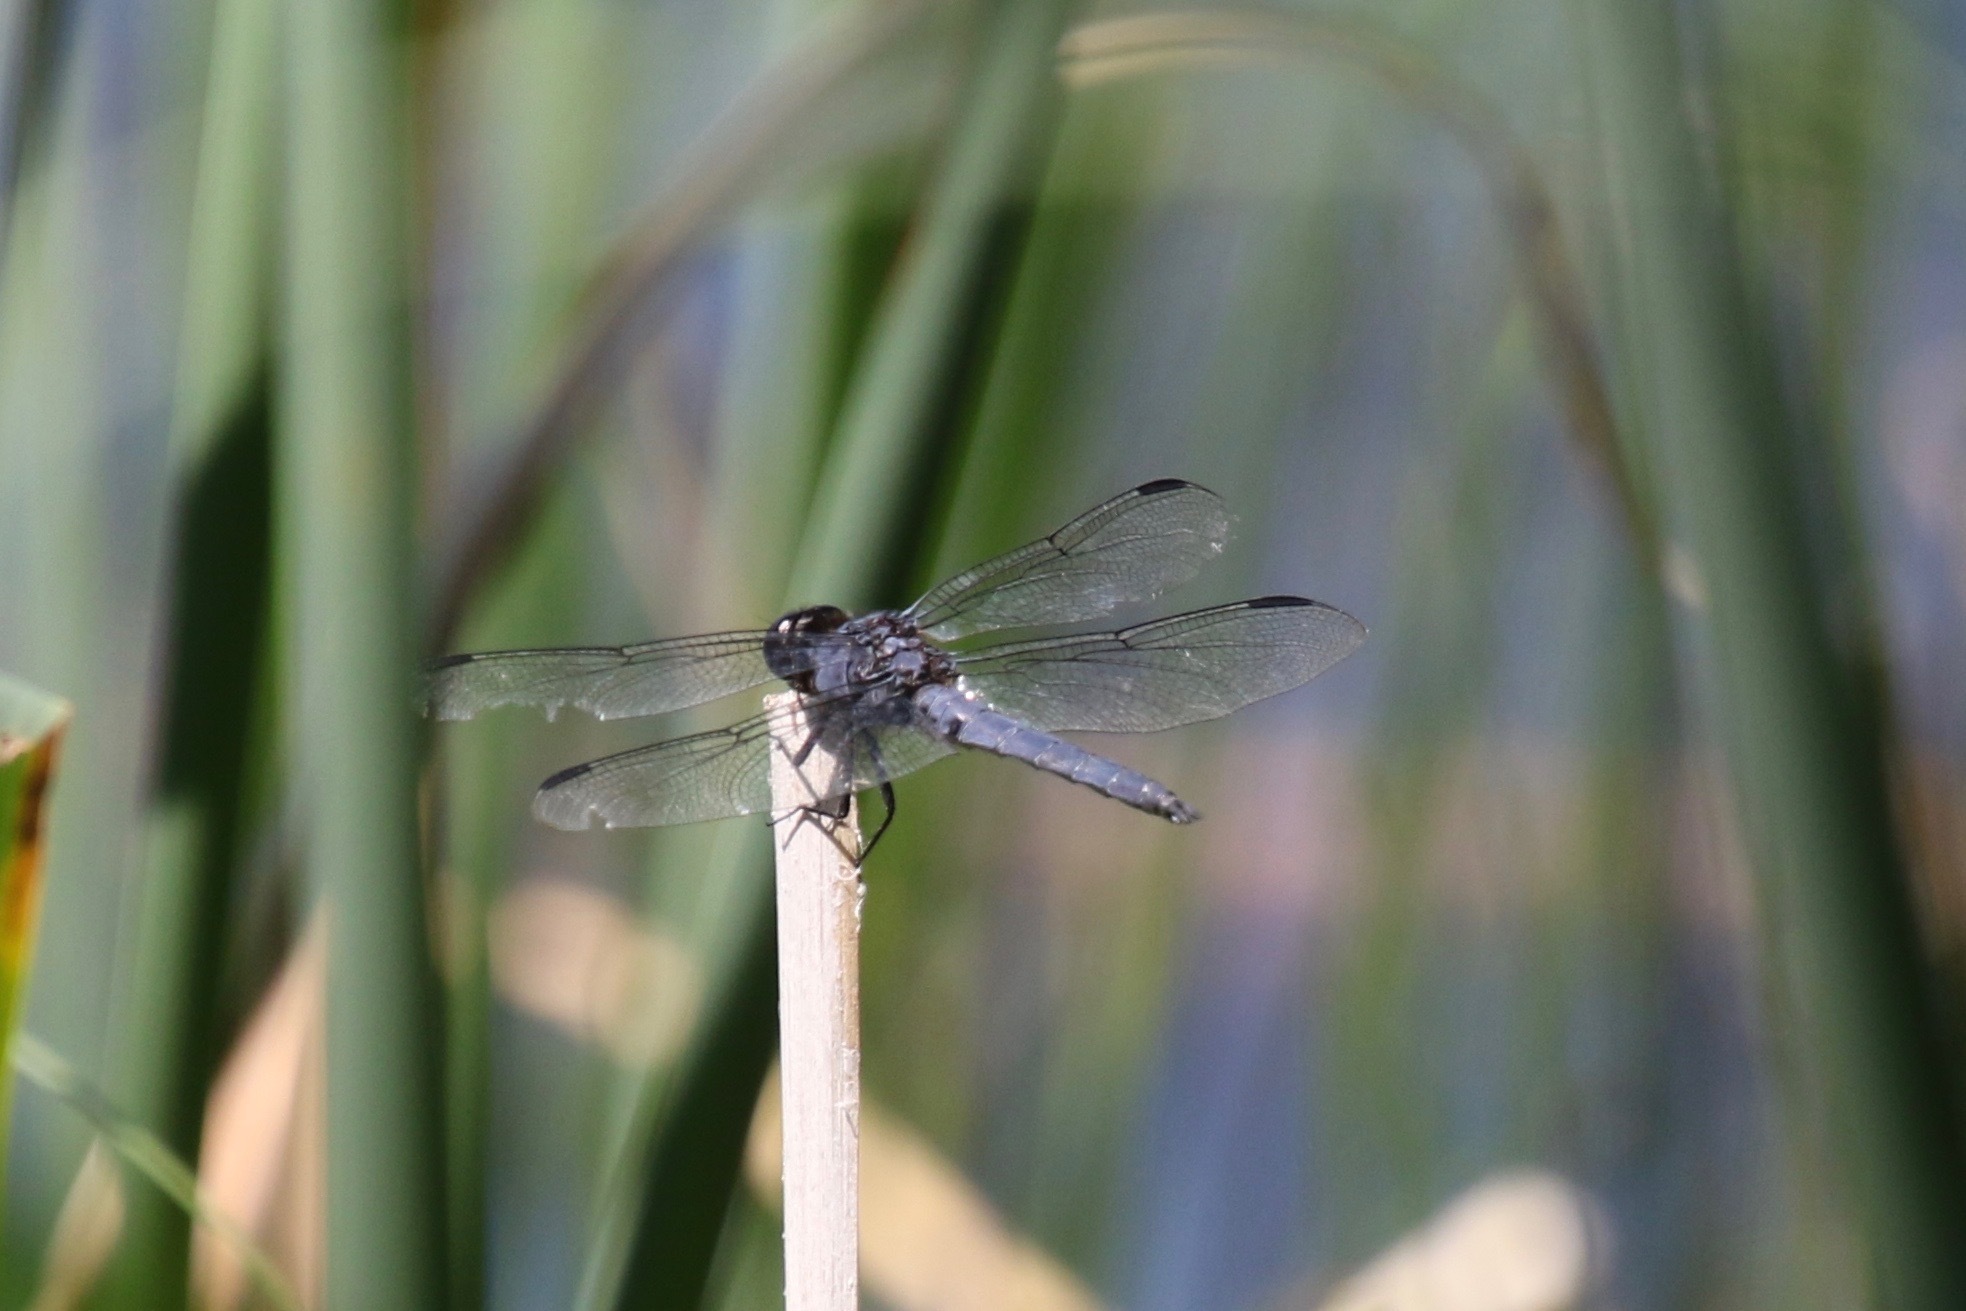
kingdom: Animalia
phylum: Arthropoda
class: Insecta
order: Odonata
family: Libellulidae
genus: Libellula
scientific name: Libellula incesta
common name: Slaty skimmer
